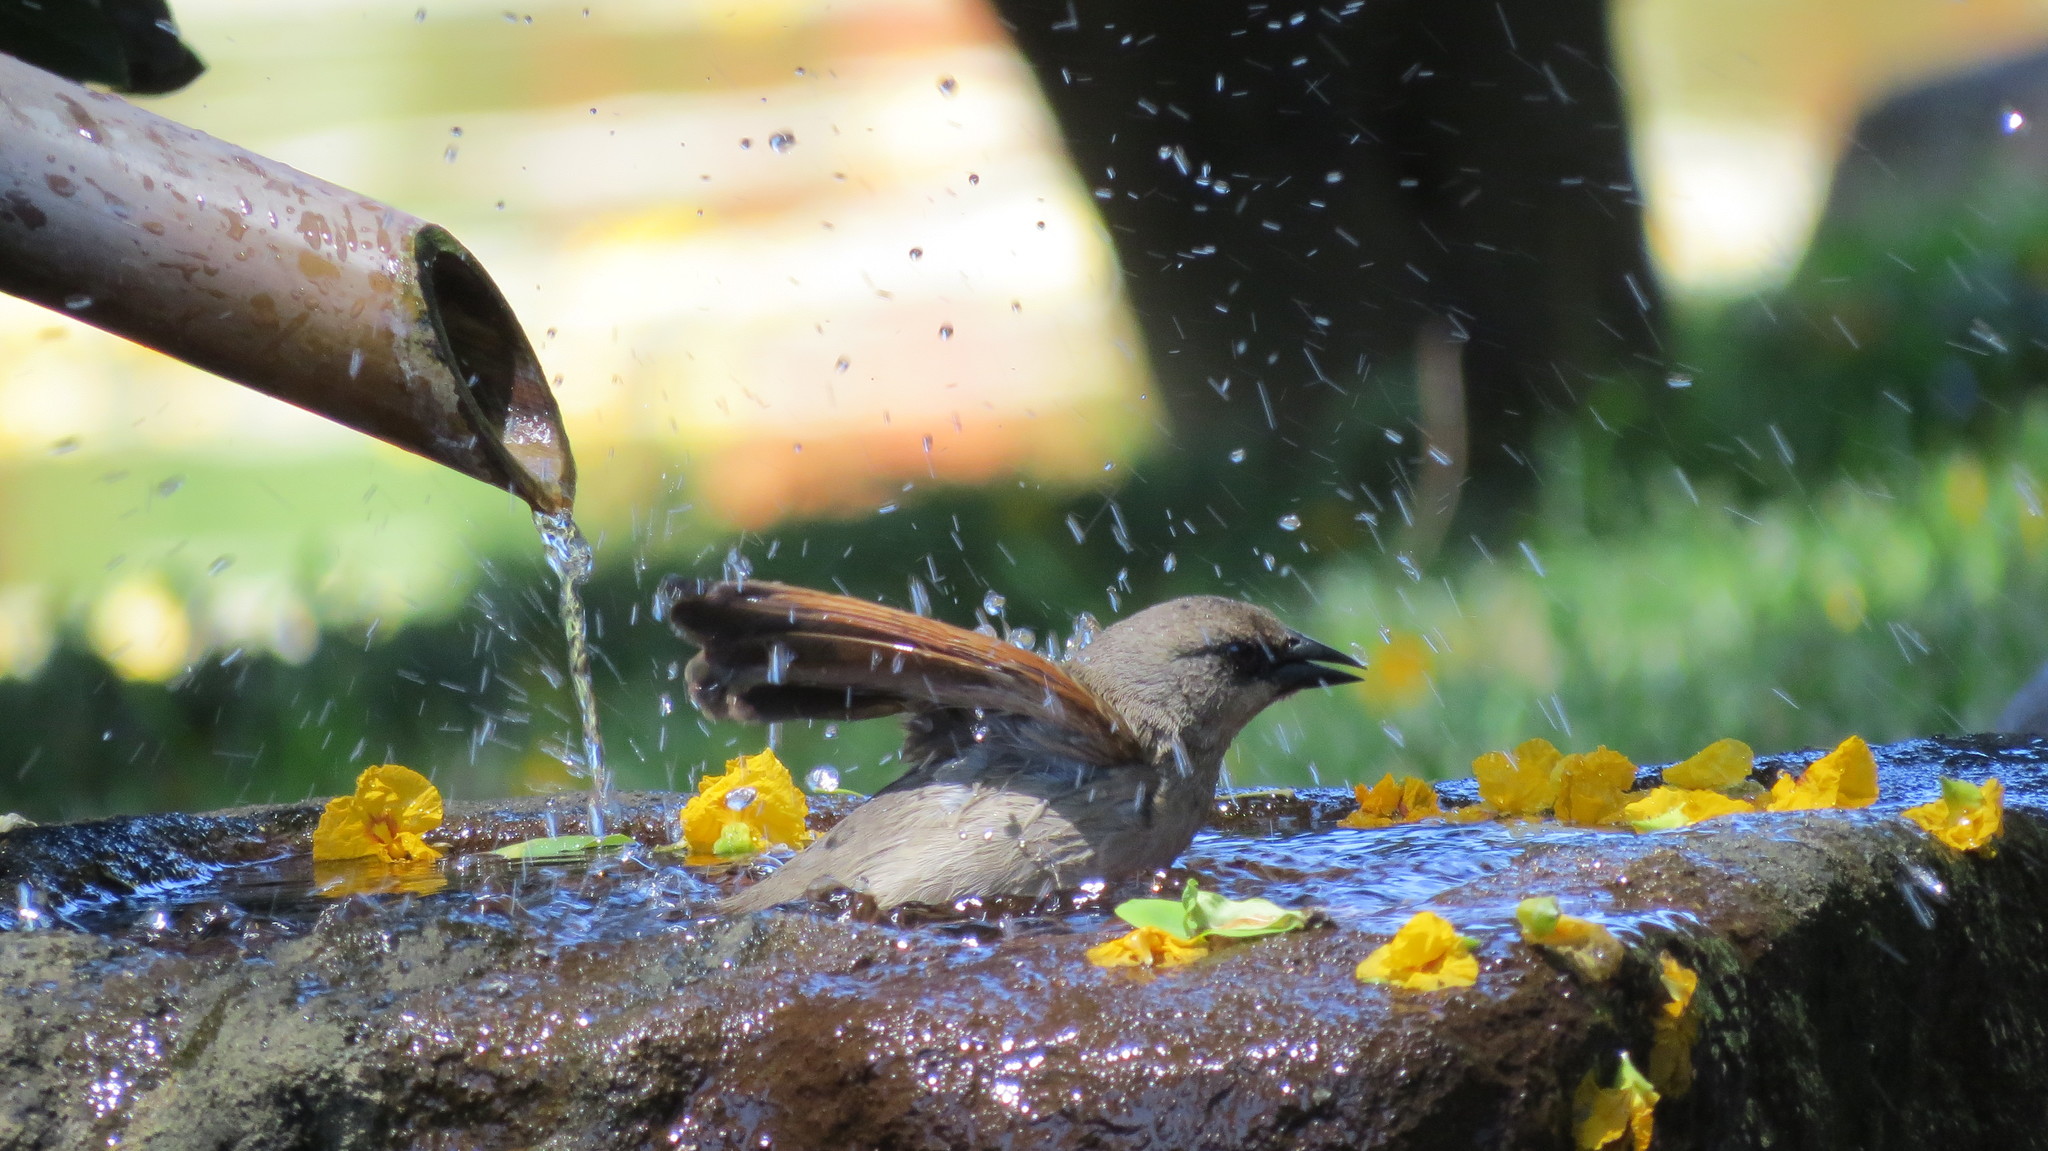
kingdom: Animalia
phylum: Chordata
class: Aves
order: Passeriformes
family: Icteridae
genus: Agelaioides
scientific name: Agelaioides badius
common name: Baywing
